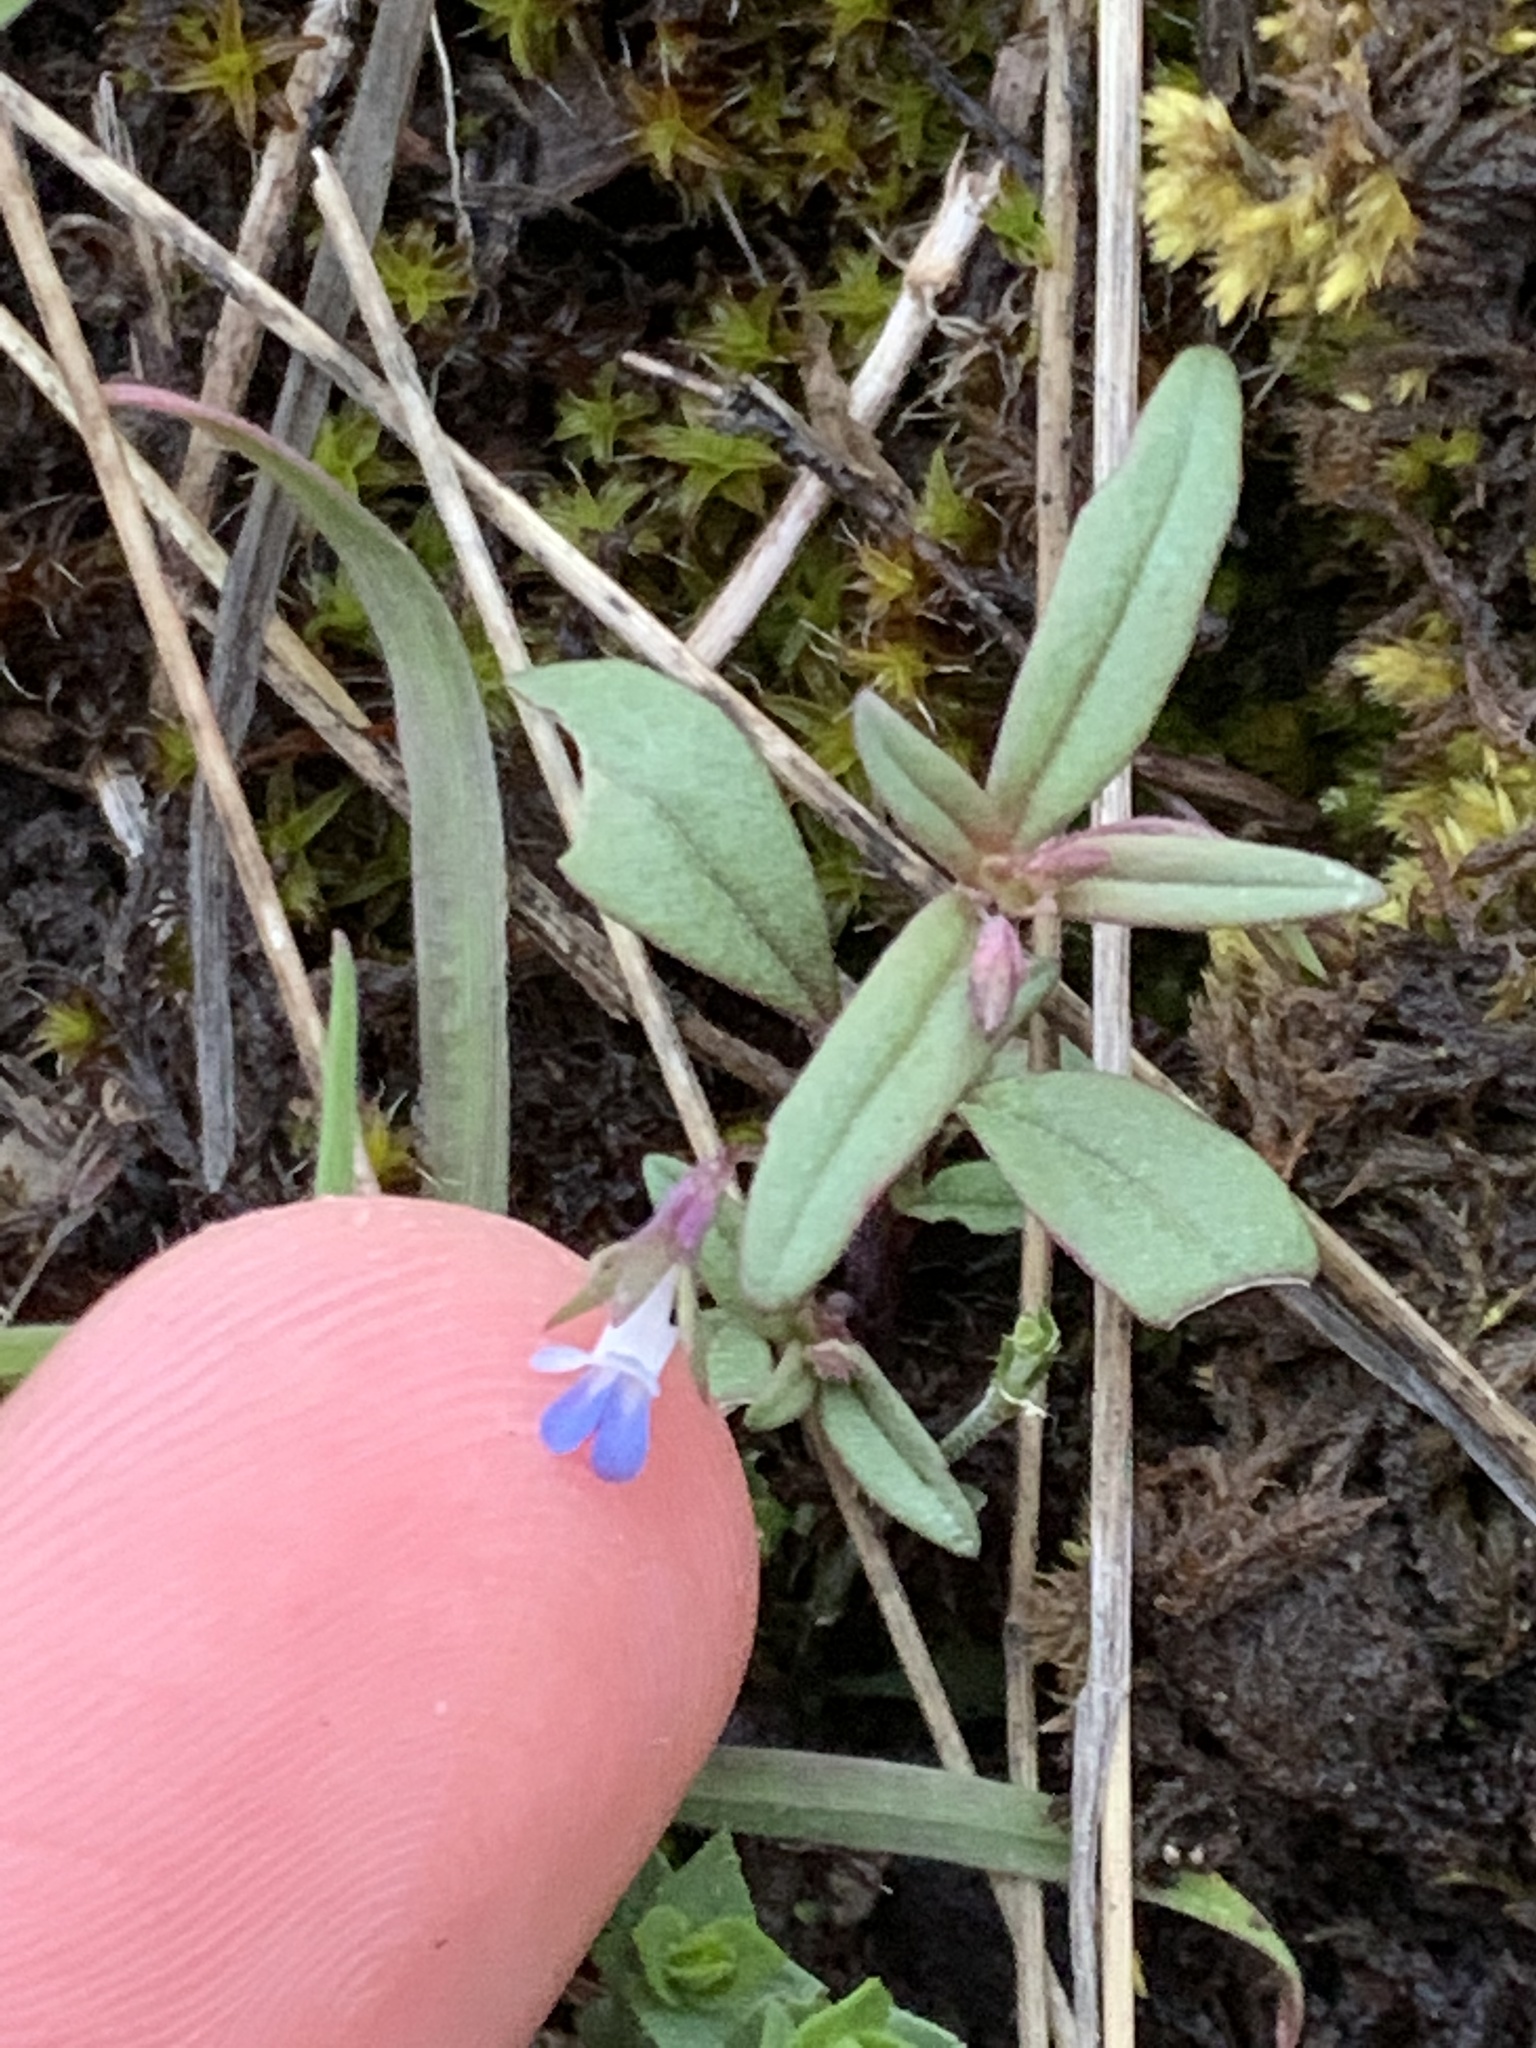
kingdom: Plantae
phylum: Tracheophyta
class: Magnoliopsida
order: Lamiales
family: Plantaginaceae
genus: Collinsia
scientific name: Collinsia parviflora
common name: Blue-lips
